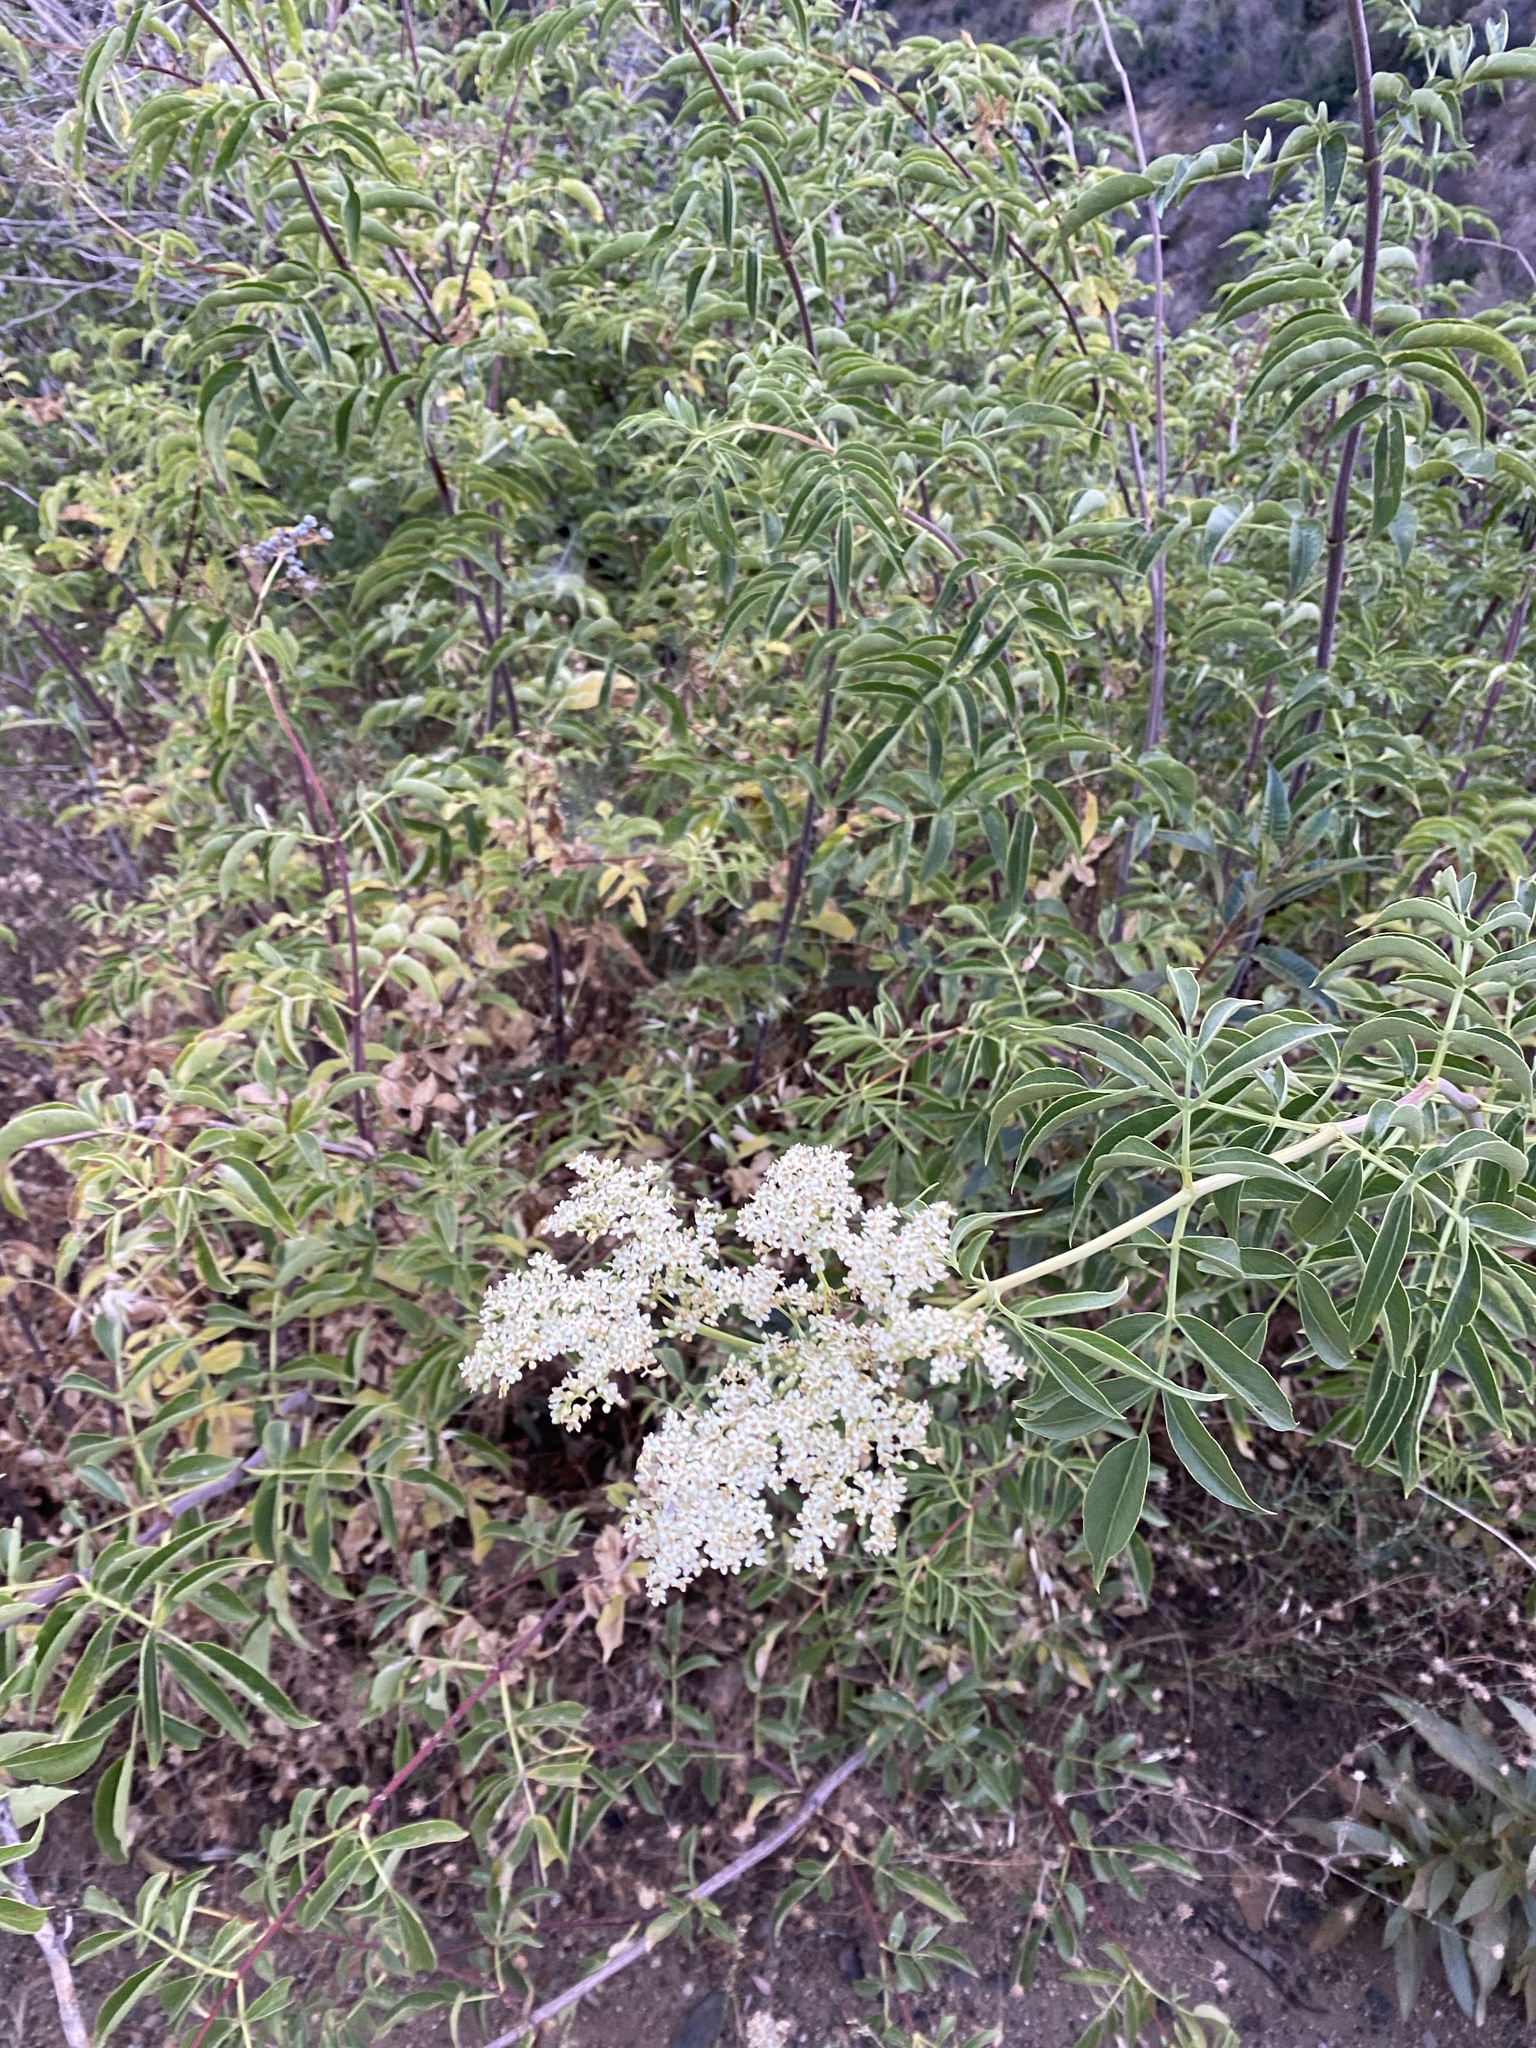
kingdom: Plantae
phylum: Tracheophyta
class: Magnoliopsida
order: Dipsacales
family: Viburnaceae
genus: Sambucus
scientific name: Sambucus cerulea
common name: Blue elder
